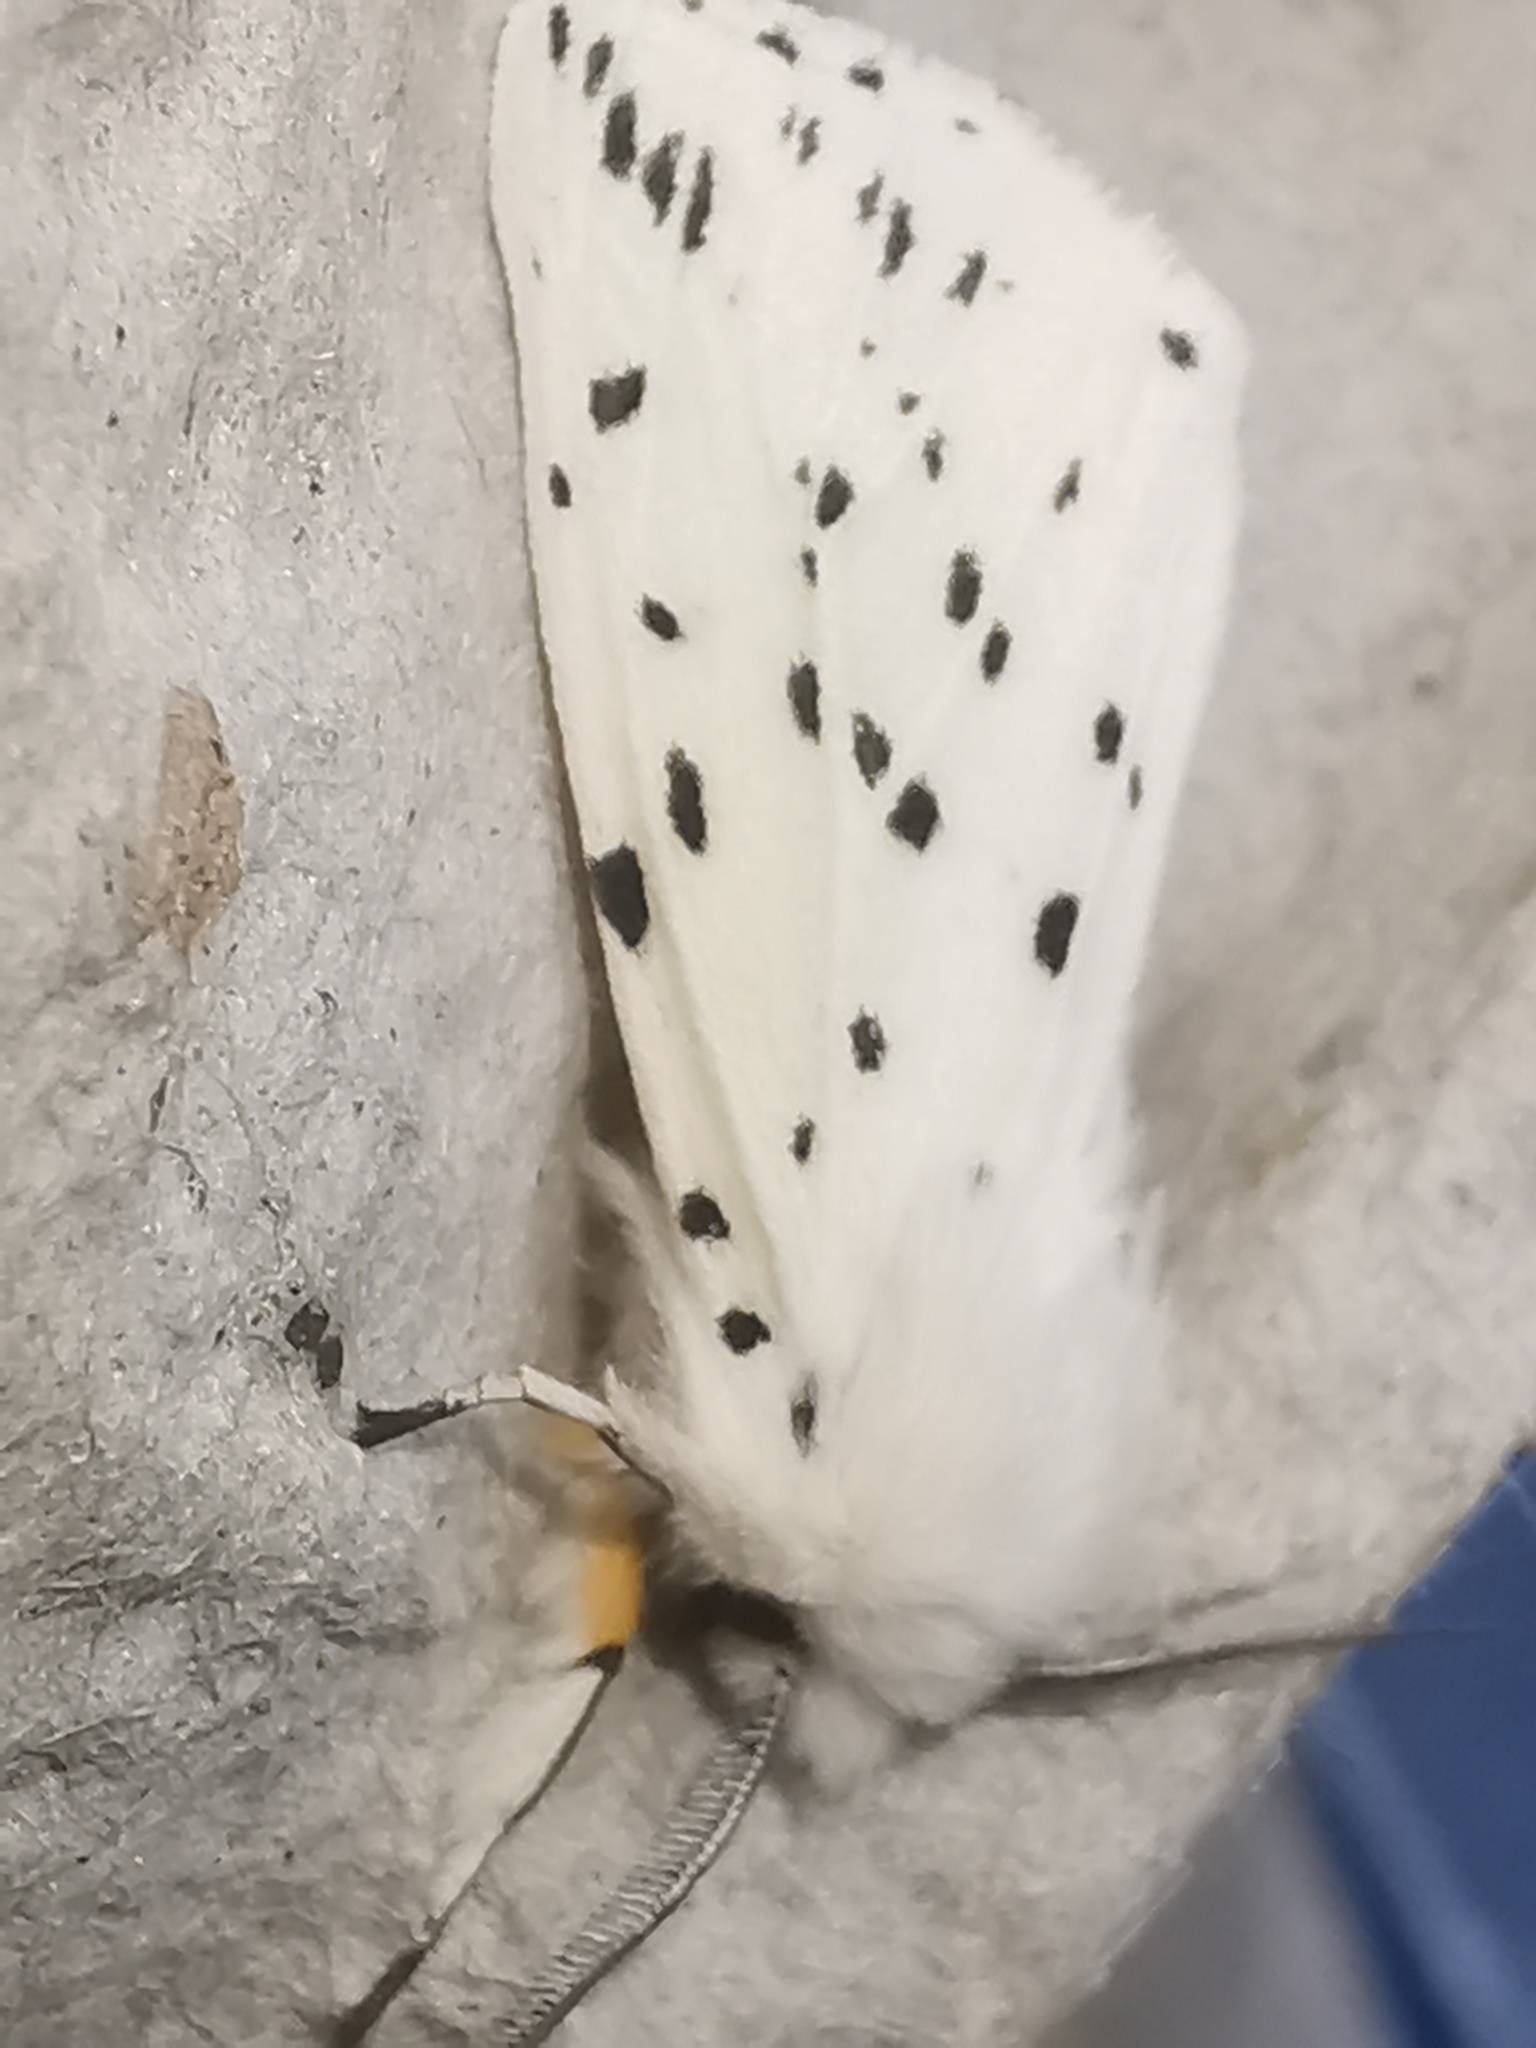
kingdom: Animalia
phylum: Arthropoda
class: Insecta
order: Lepidoptera
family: Erebidae
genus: Spilosoma
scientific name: Spilosoma lubricipeda
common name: White ermine
